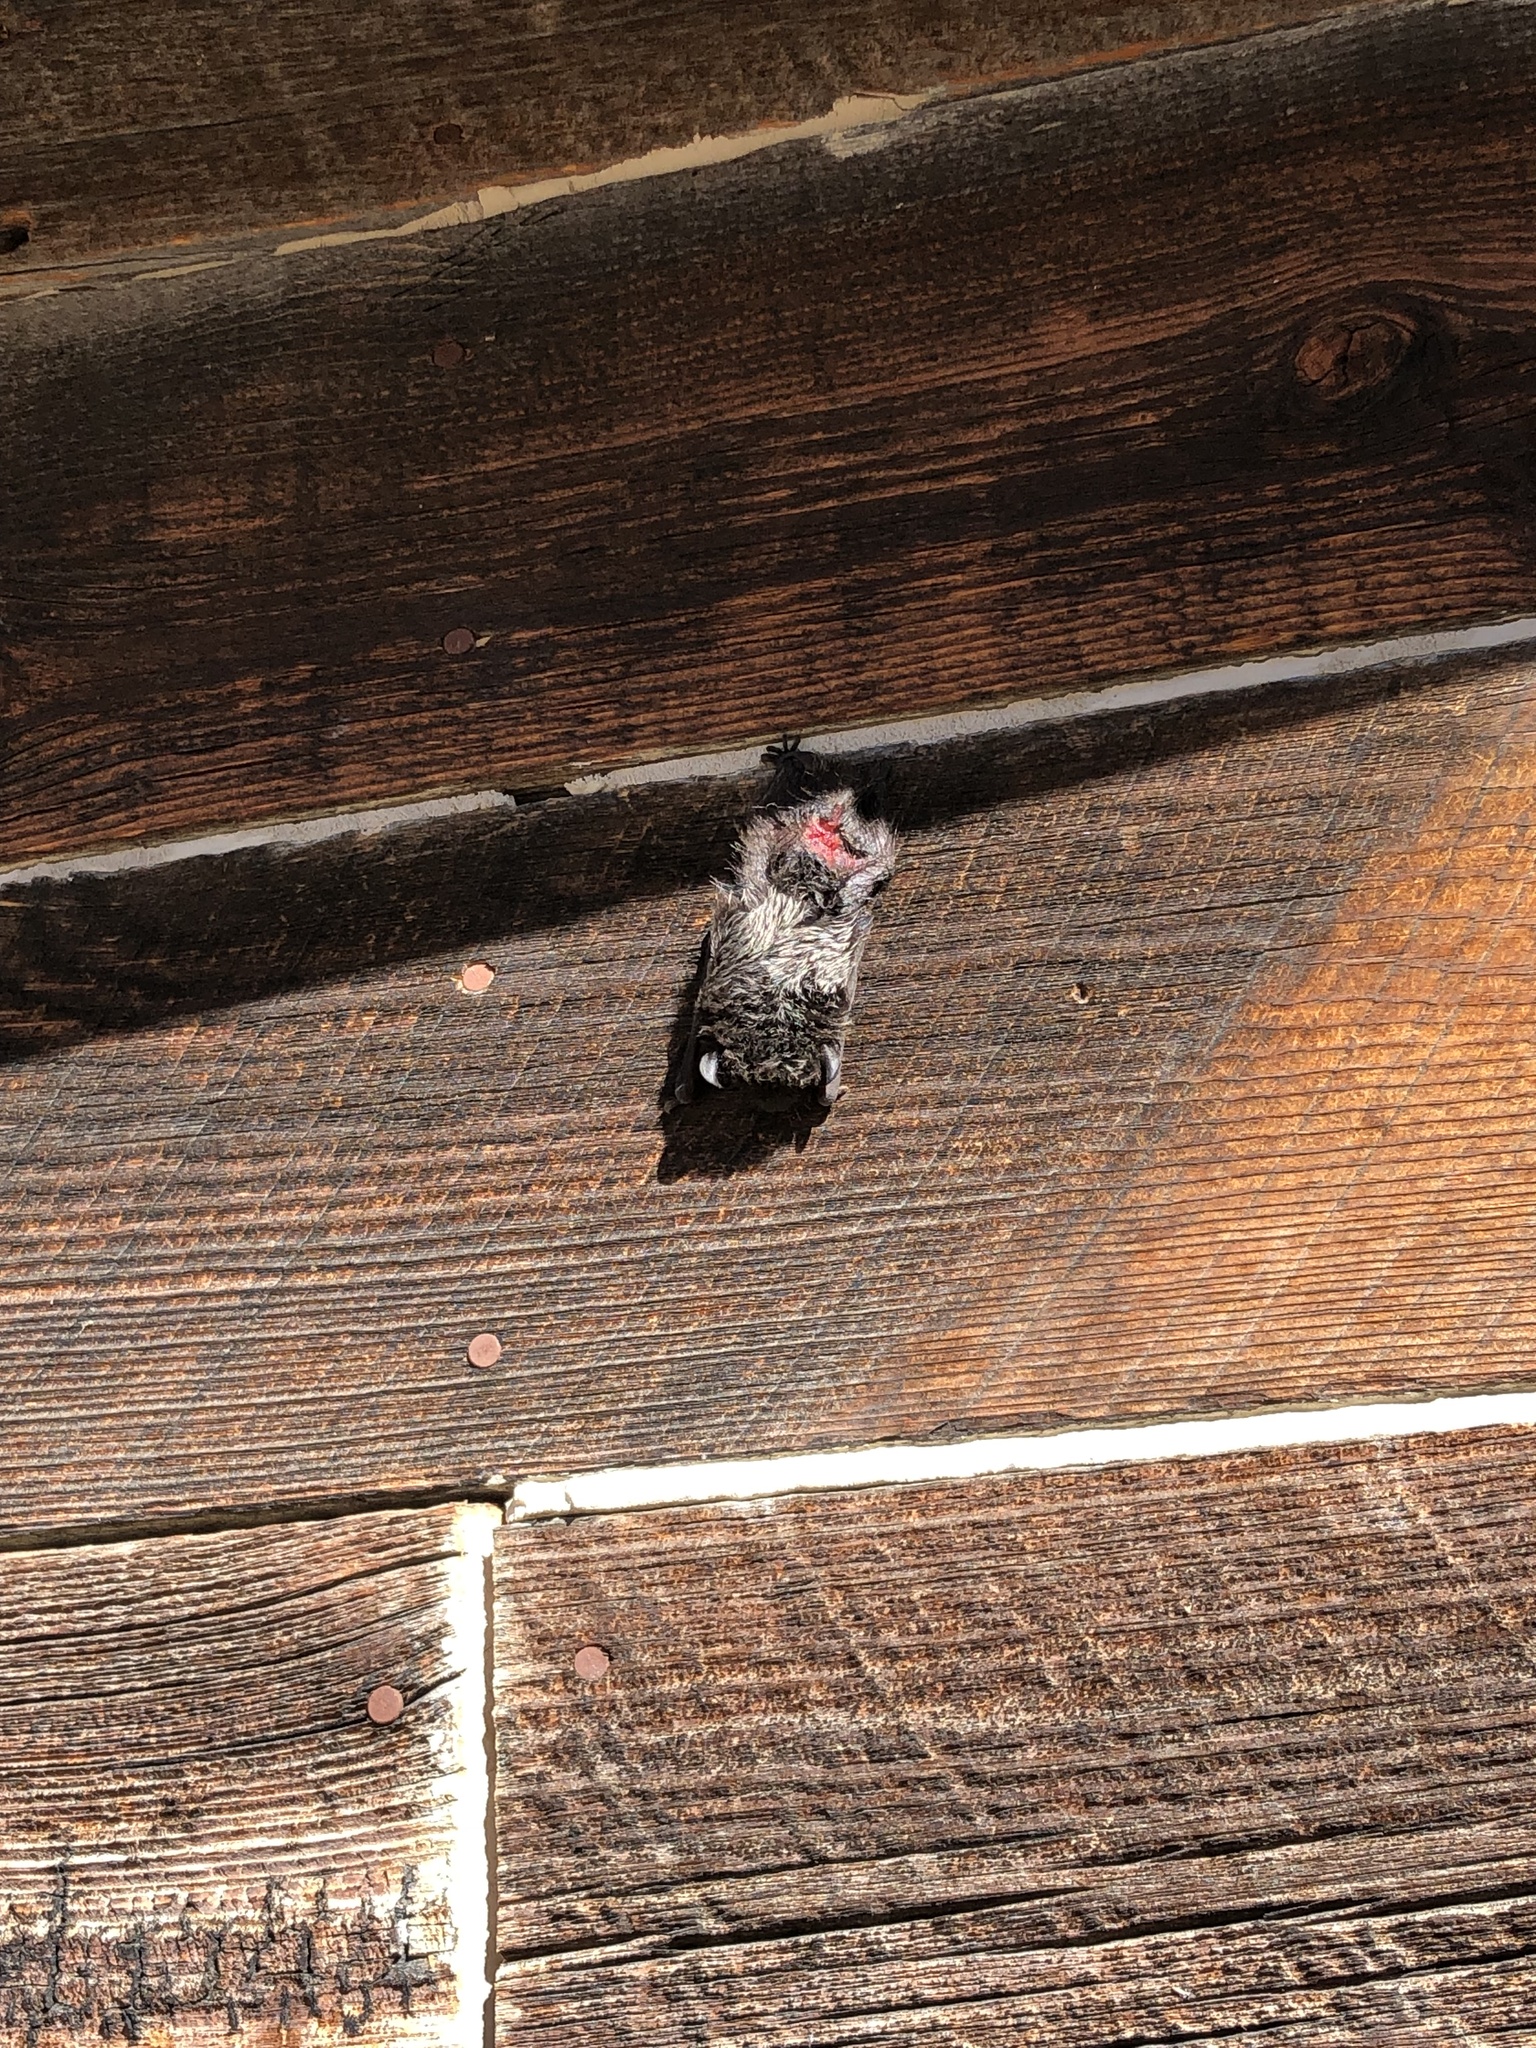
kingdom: Animalia
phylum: Chordata
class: Mammalia
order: Chiroptera
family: Vespertilionidae
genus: Lasionycteris
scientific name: Lasionycteris noctivagans
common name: Silver-haired bat
